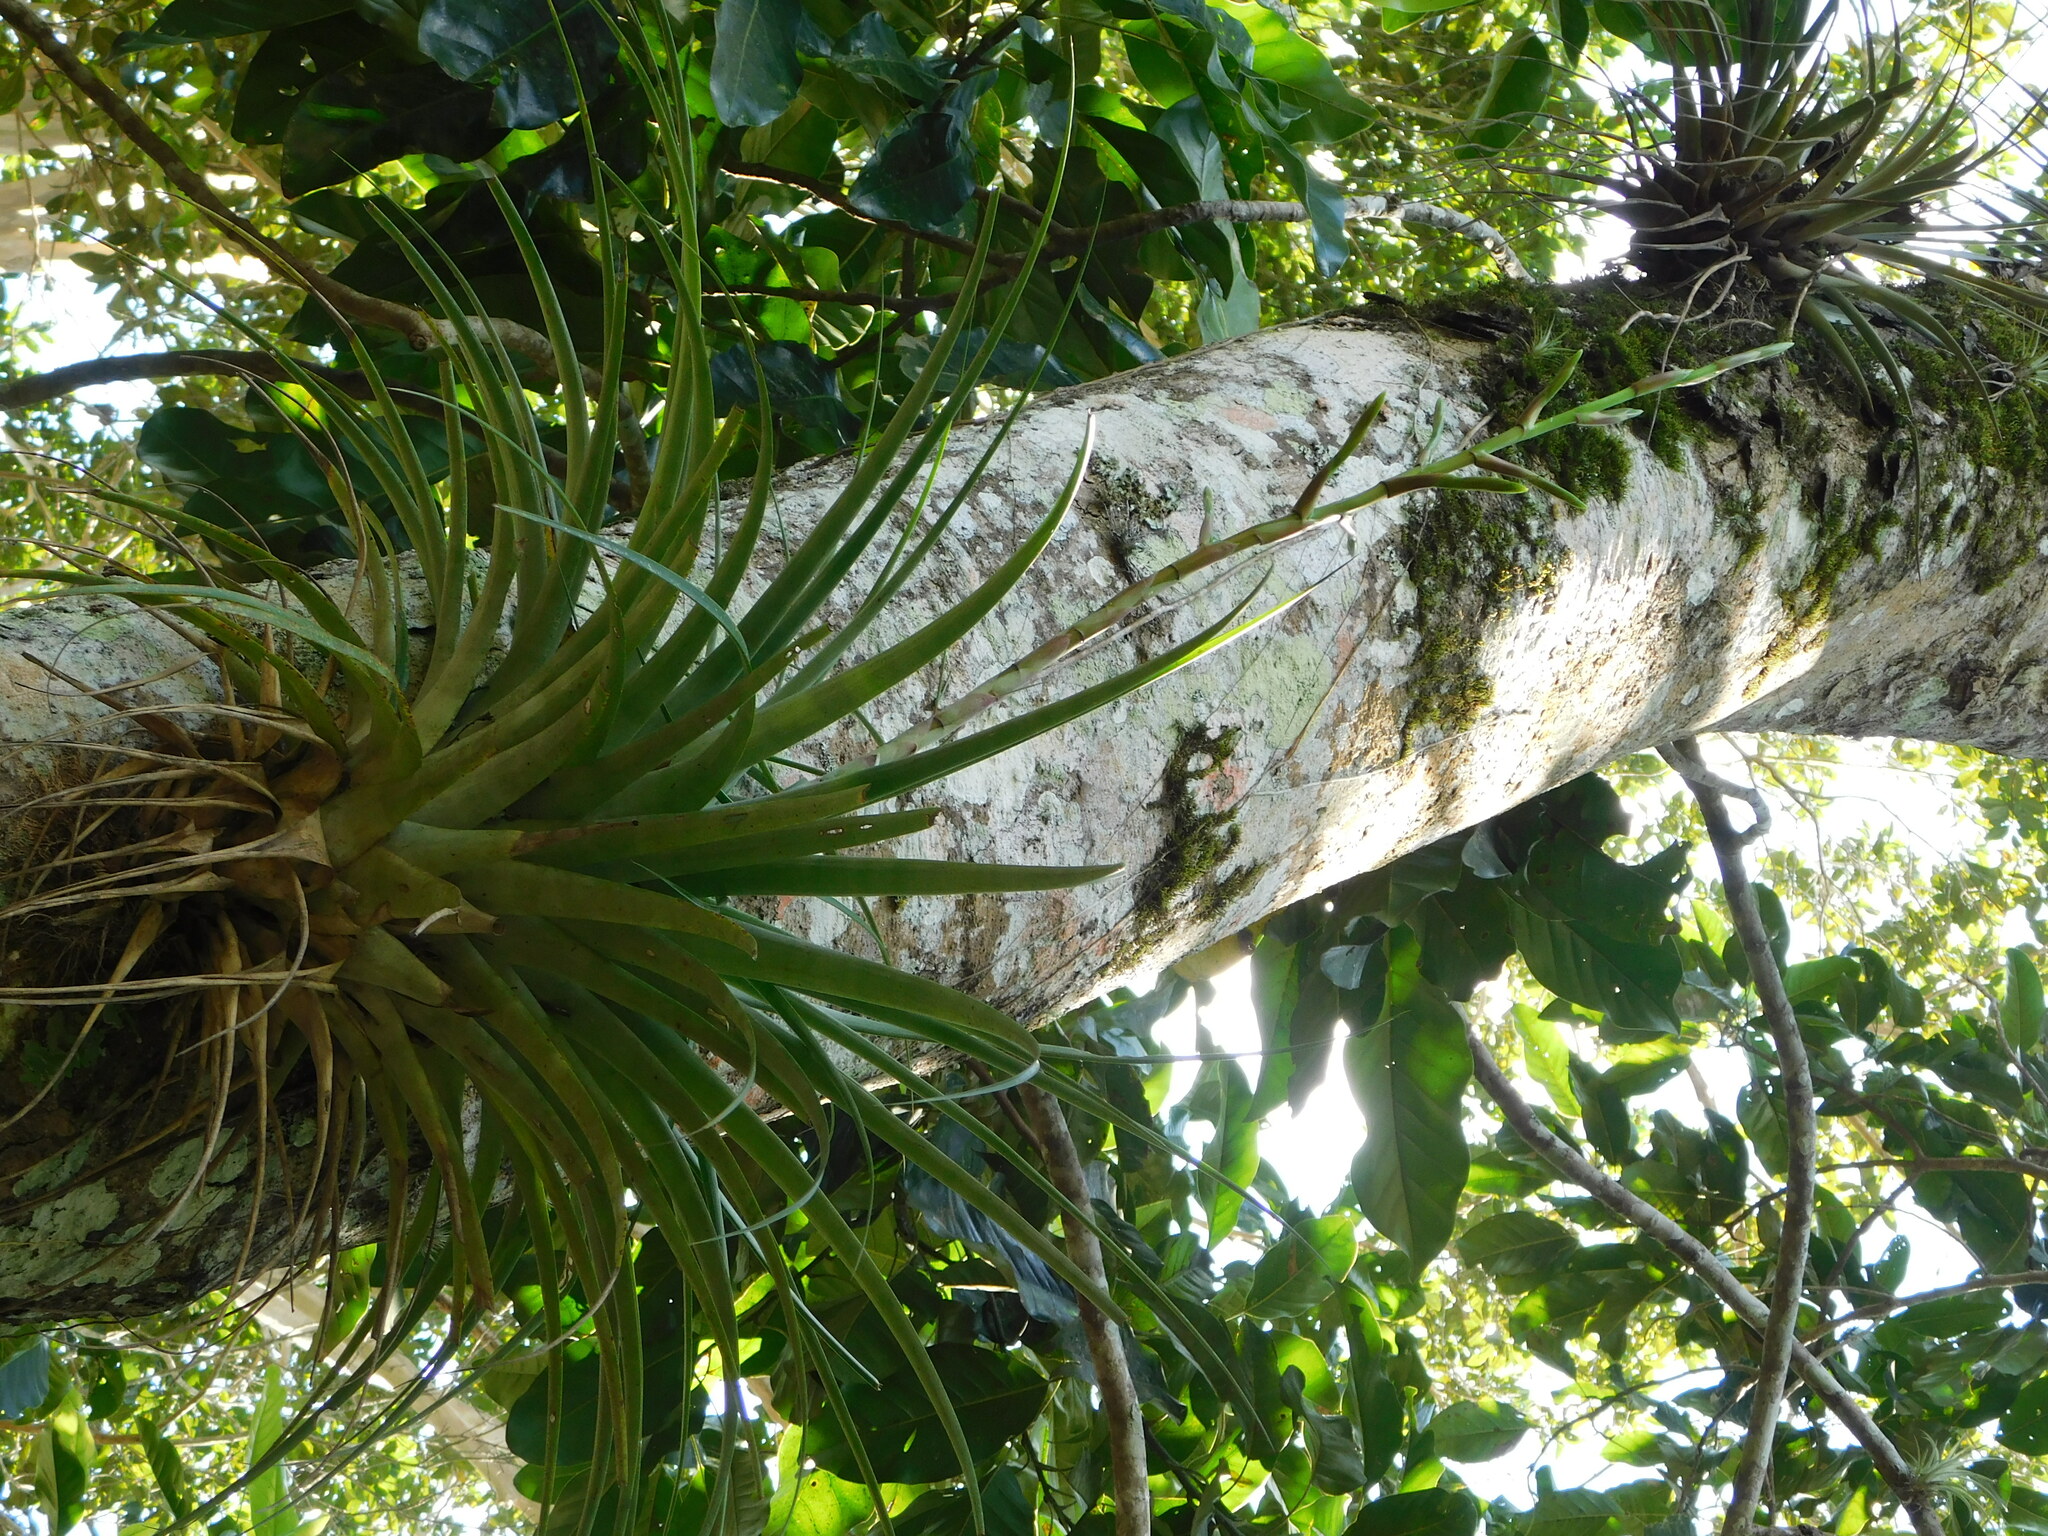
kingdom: Plantae
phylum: Tracheophyta
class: Liliopsida
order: Poales
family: Bromeliaceae
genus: Tillandsia
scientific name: Tillandsia limbata
